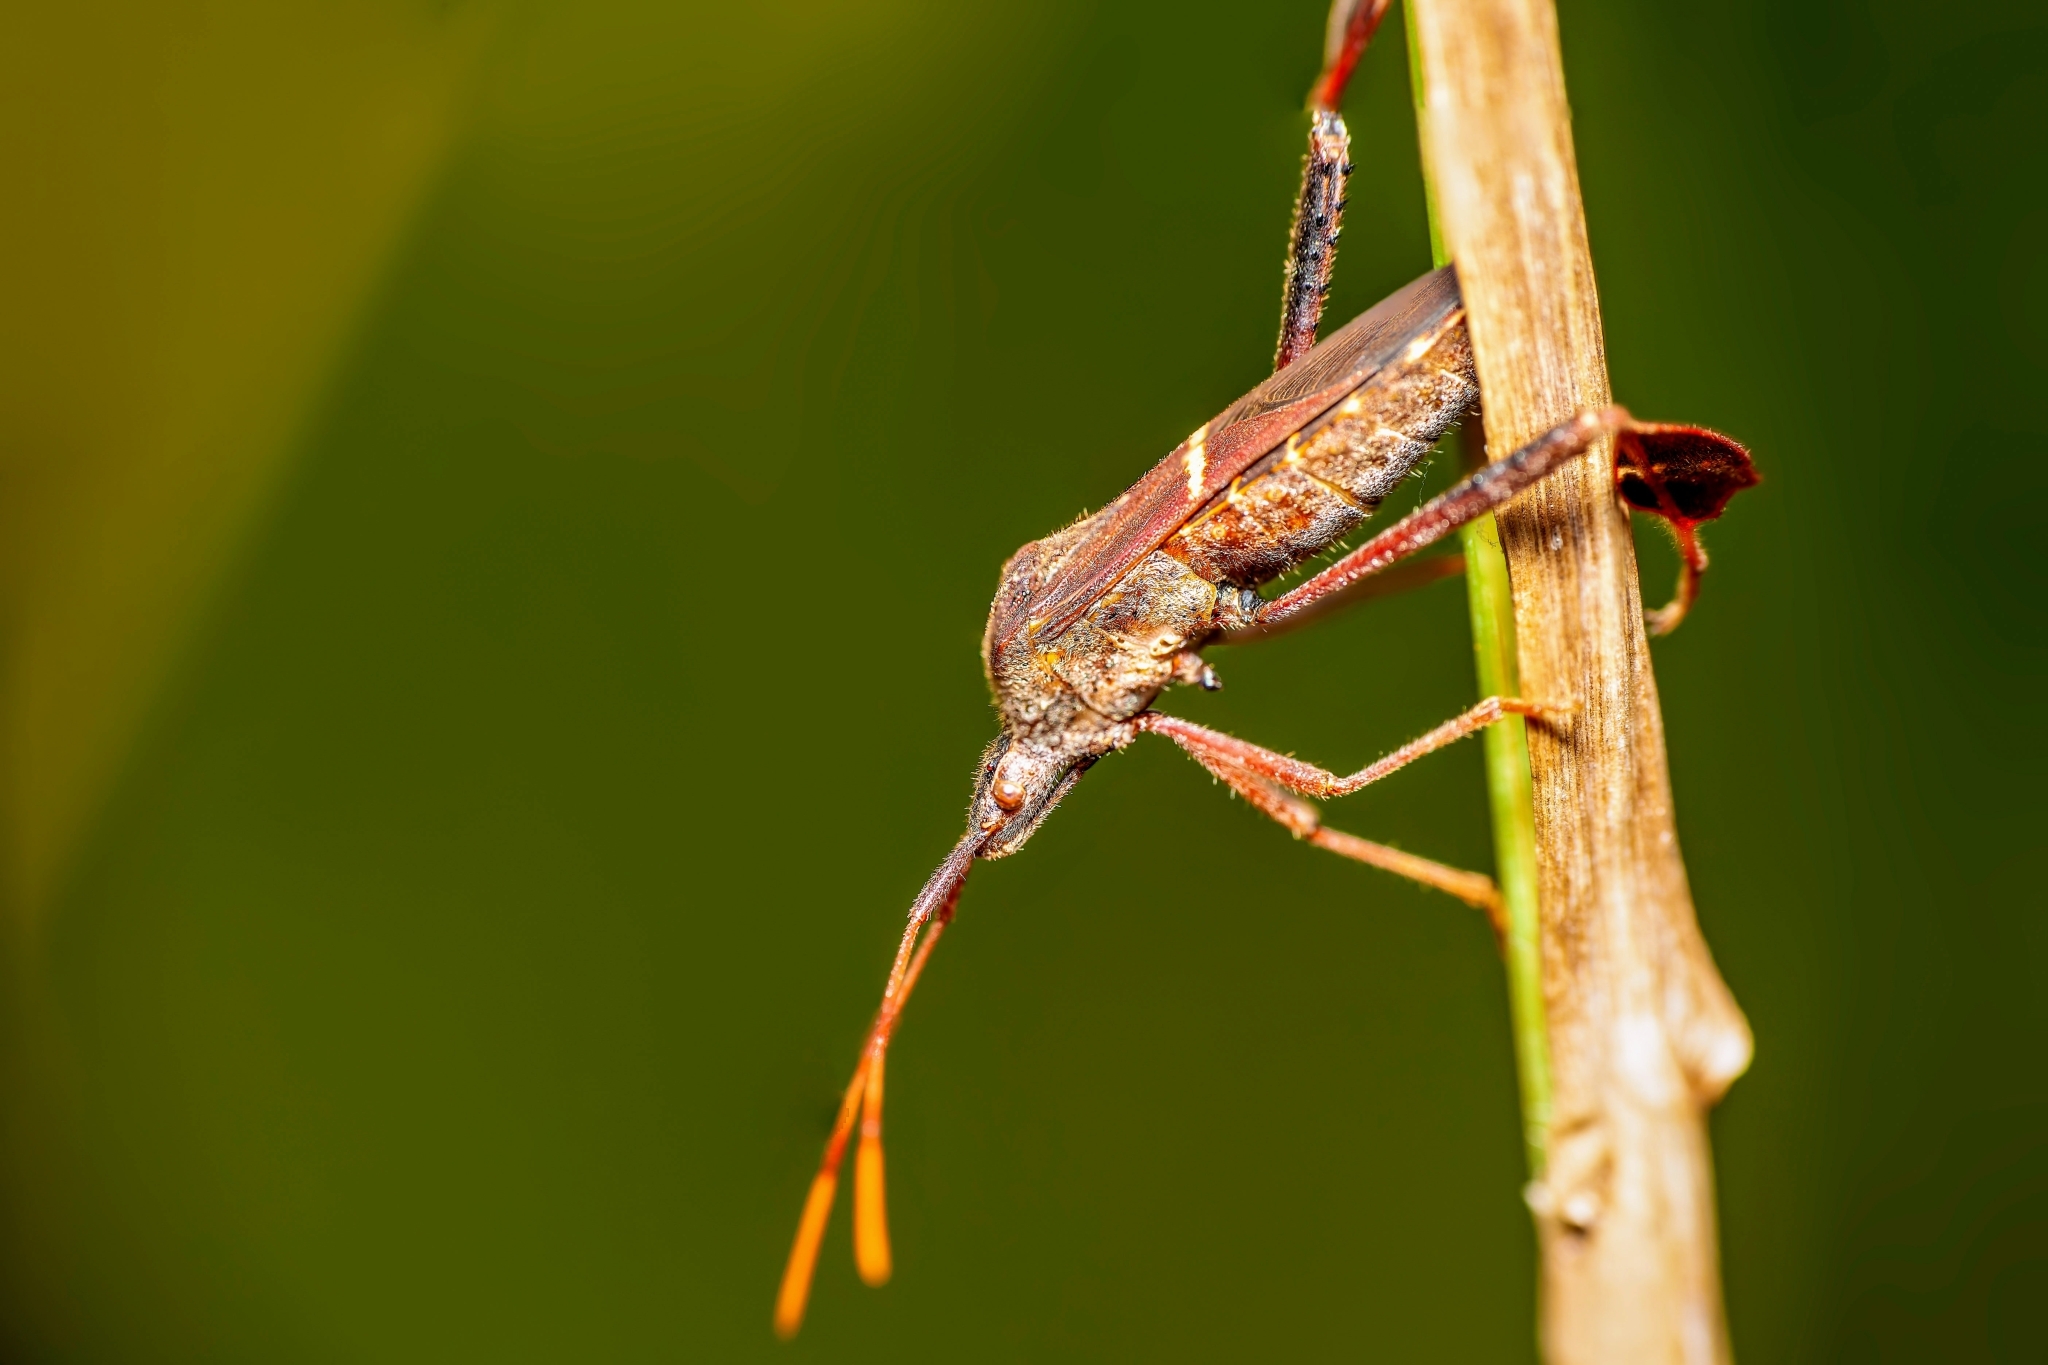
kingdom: Animalia
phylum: Arthropoda
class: Insecta
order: Hemiptera
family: Coreidae
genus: Leptoglossus
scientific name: Leptoglossus phyllopus
